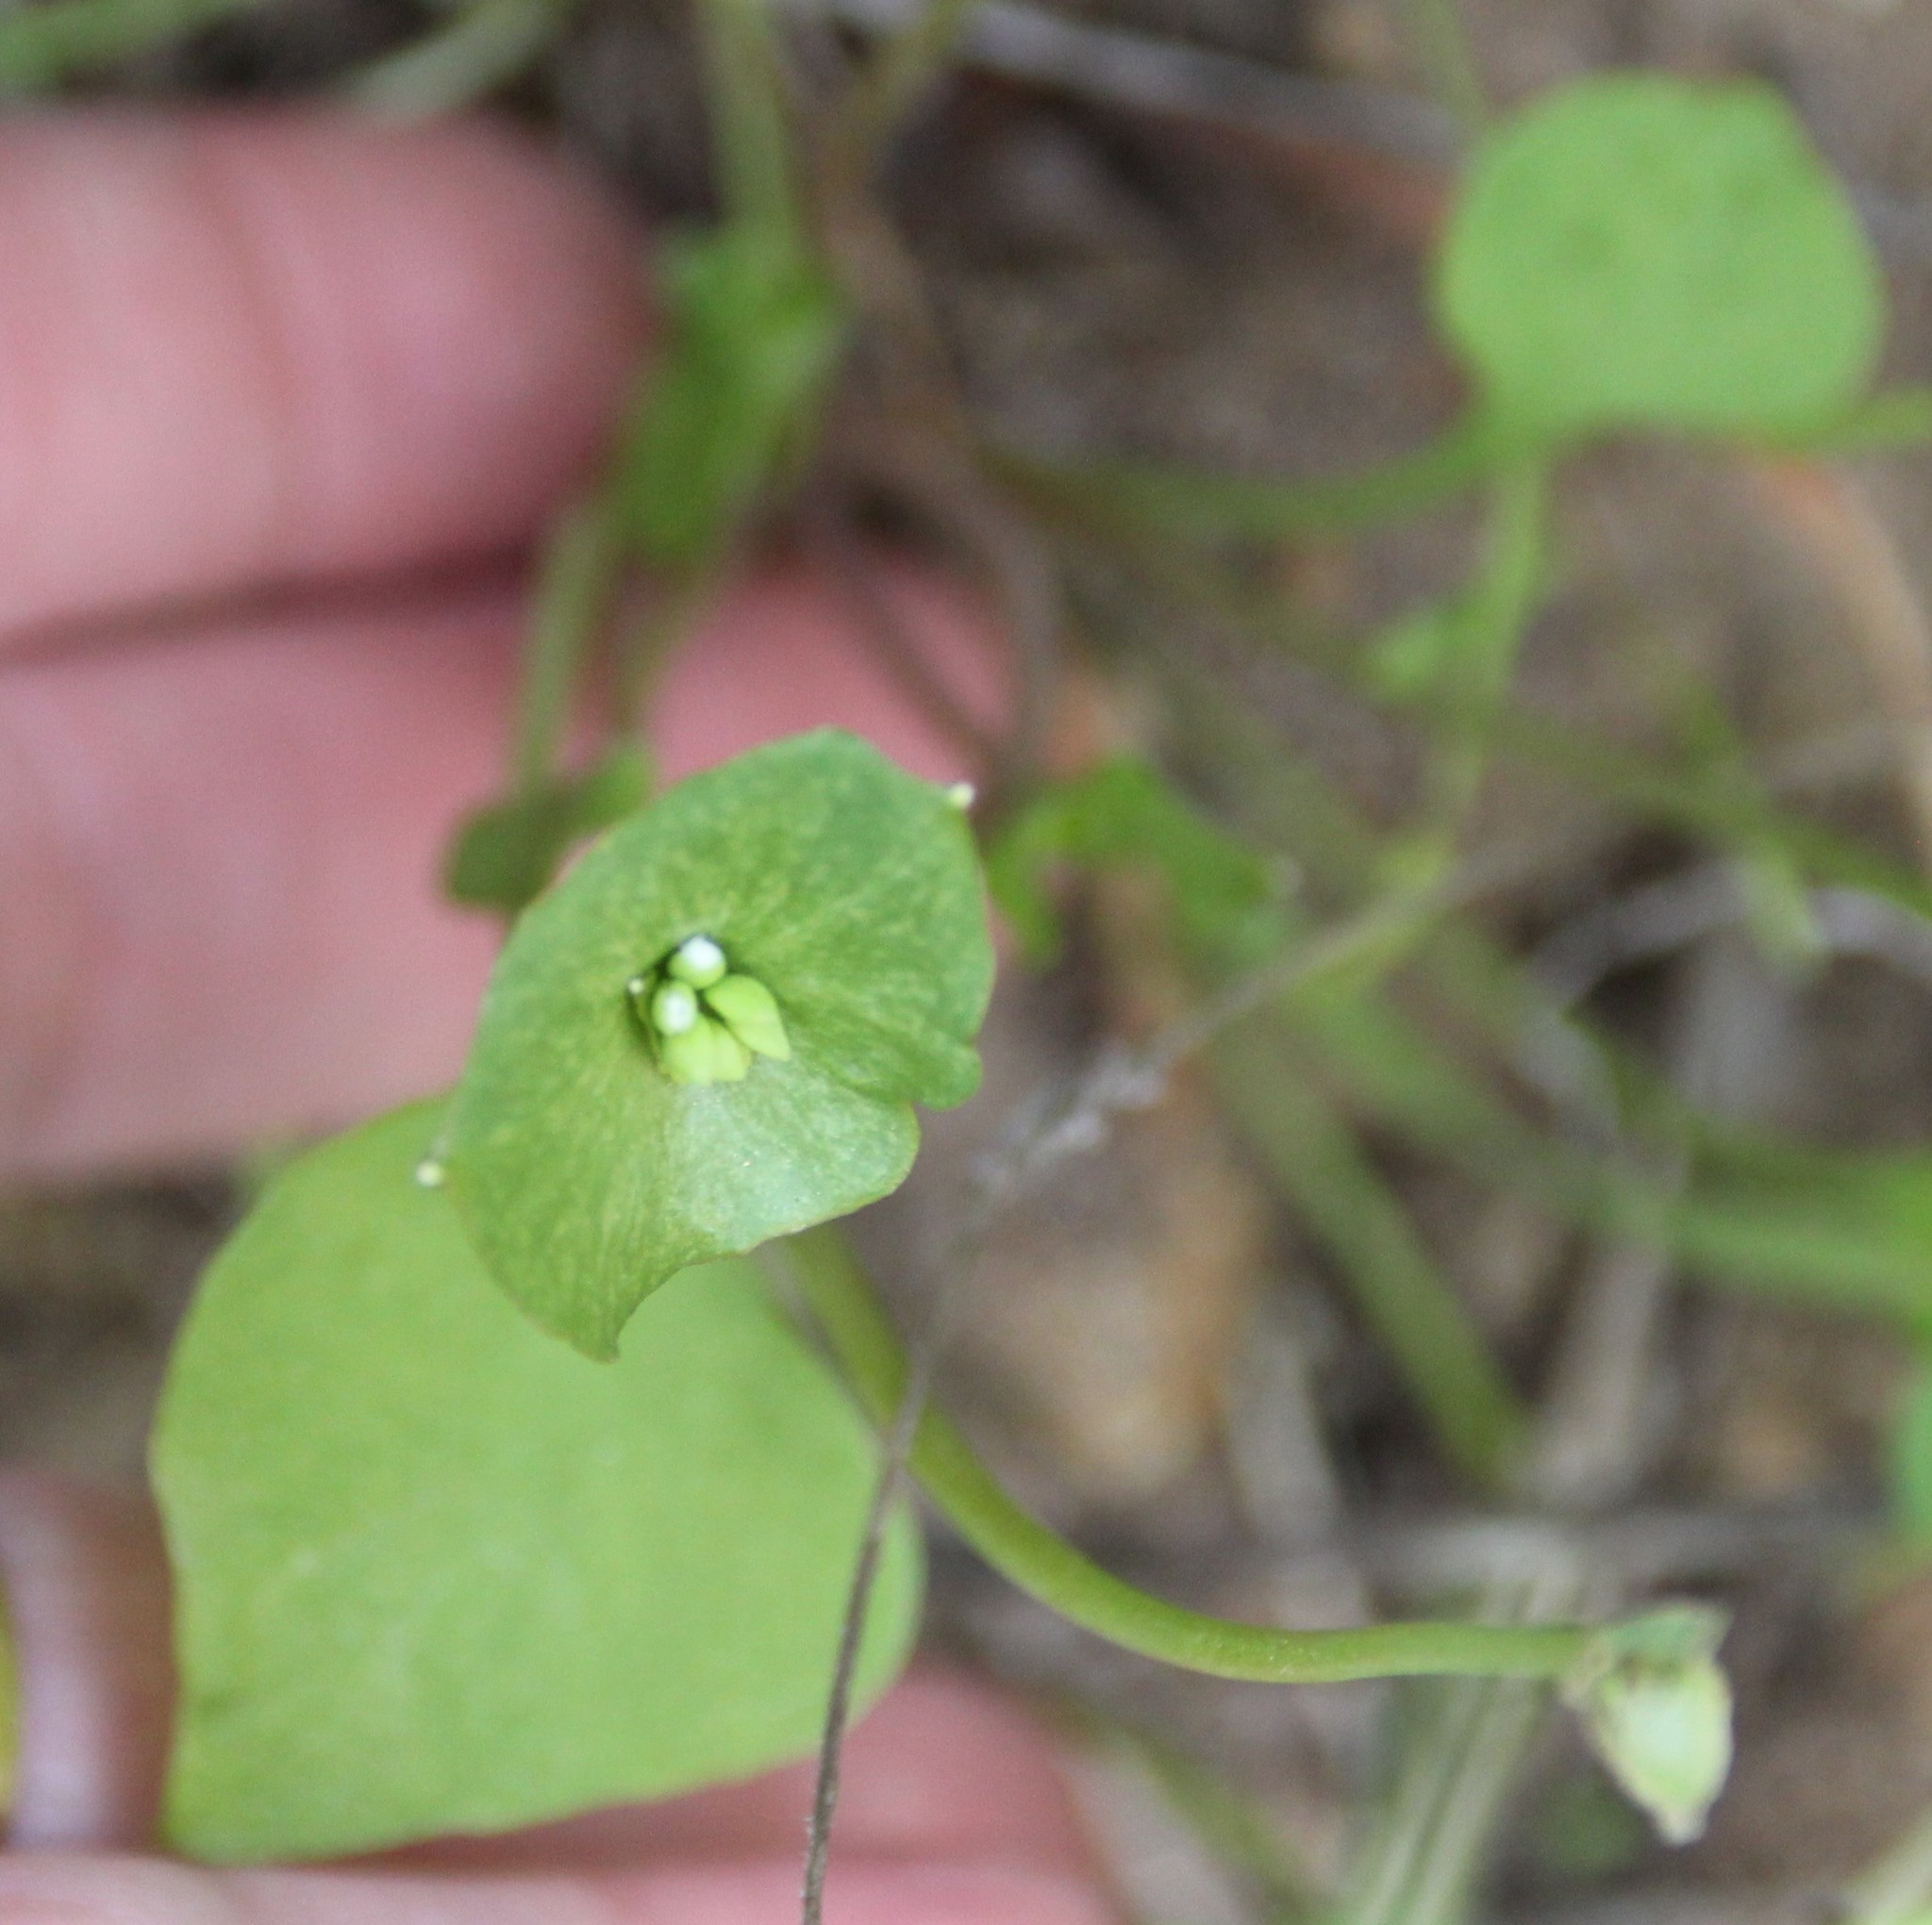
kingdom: Plantae
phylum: Tracheophyta
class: Magnoliopsida
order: Caryophyllales
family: Montiaceae
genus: Claytonia
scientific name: Claytonia perfoliata
